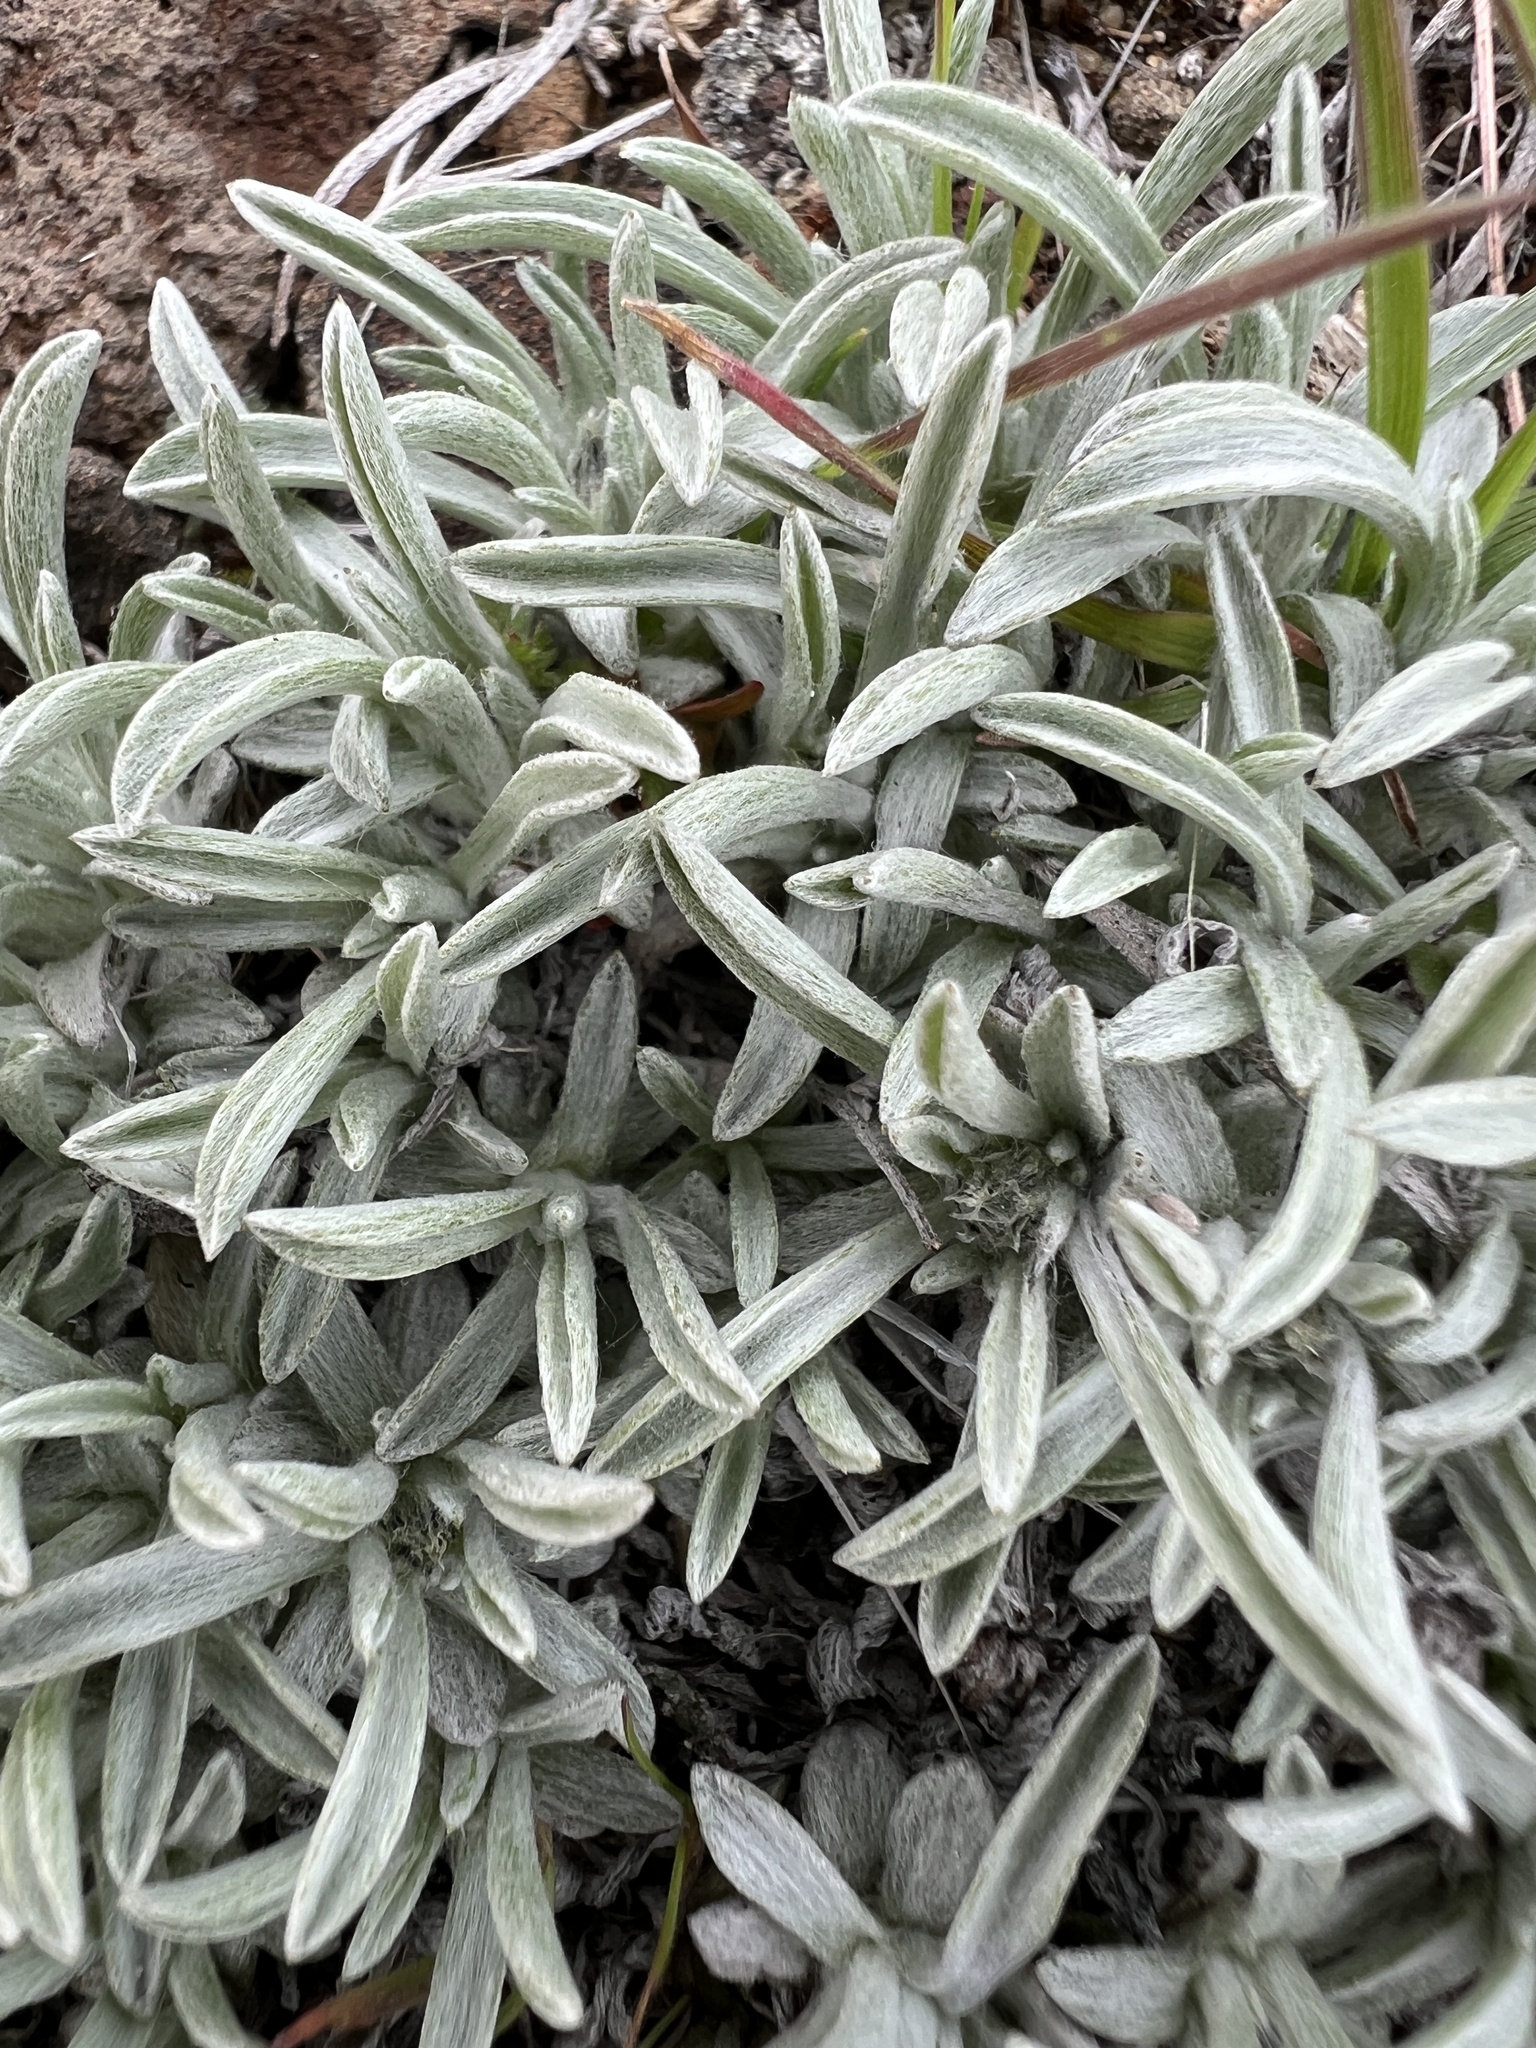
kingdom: Plantae
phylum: Tracheophyta
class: Magnoliopsida
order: Asterales
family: Asteraceae
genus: Antennaria
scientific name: Antennaria dimorpha
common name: Cushion pussytoes
